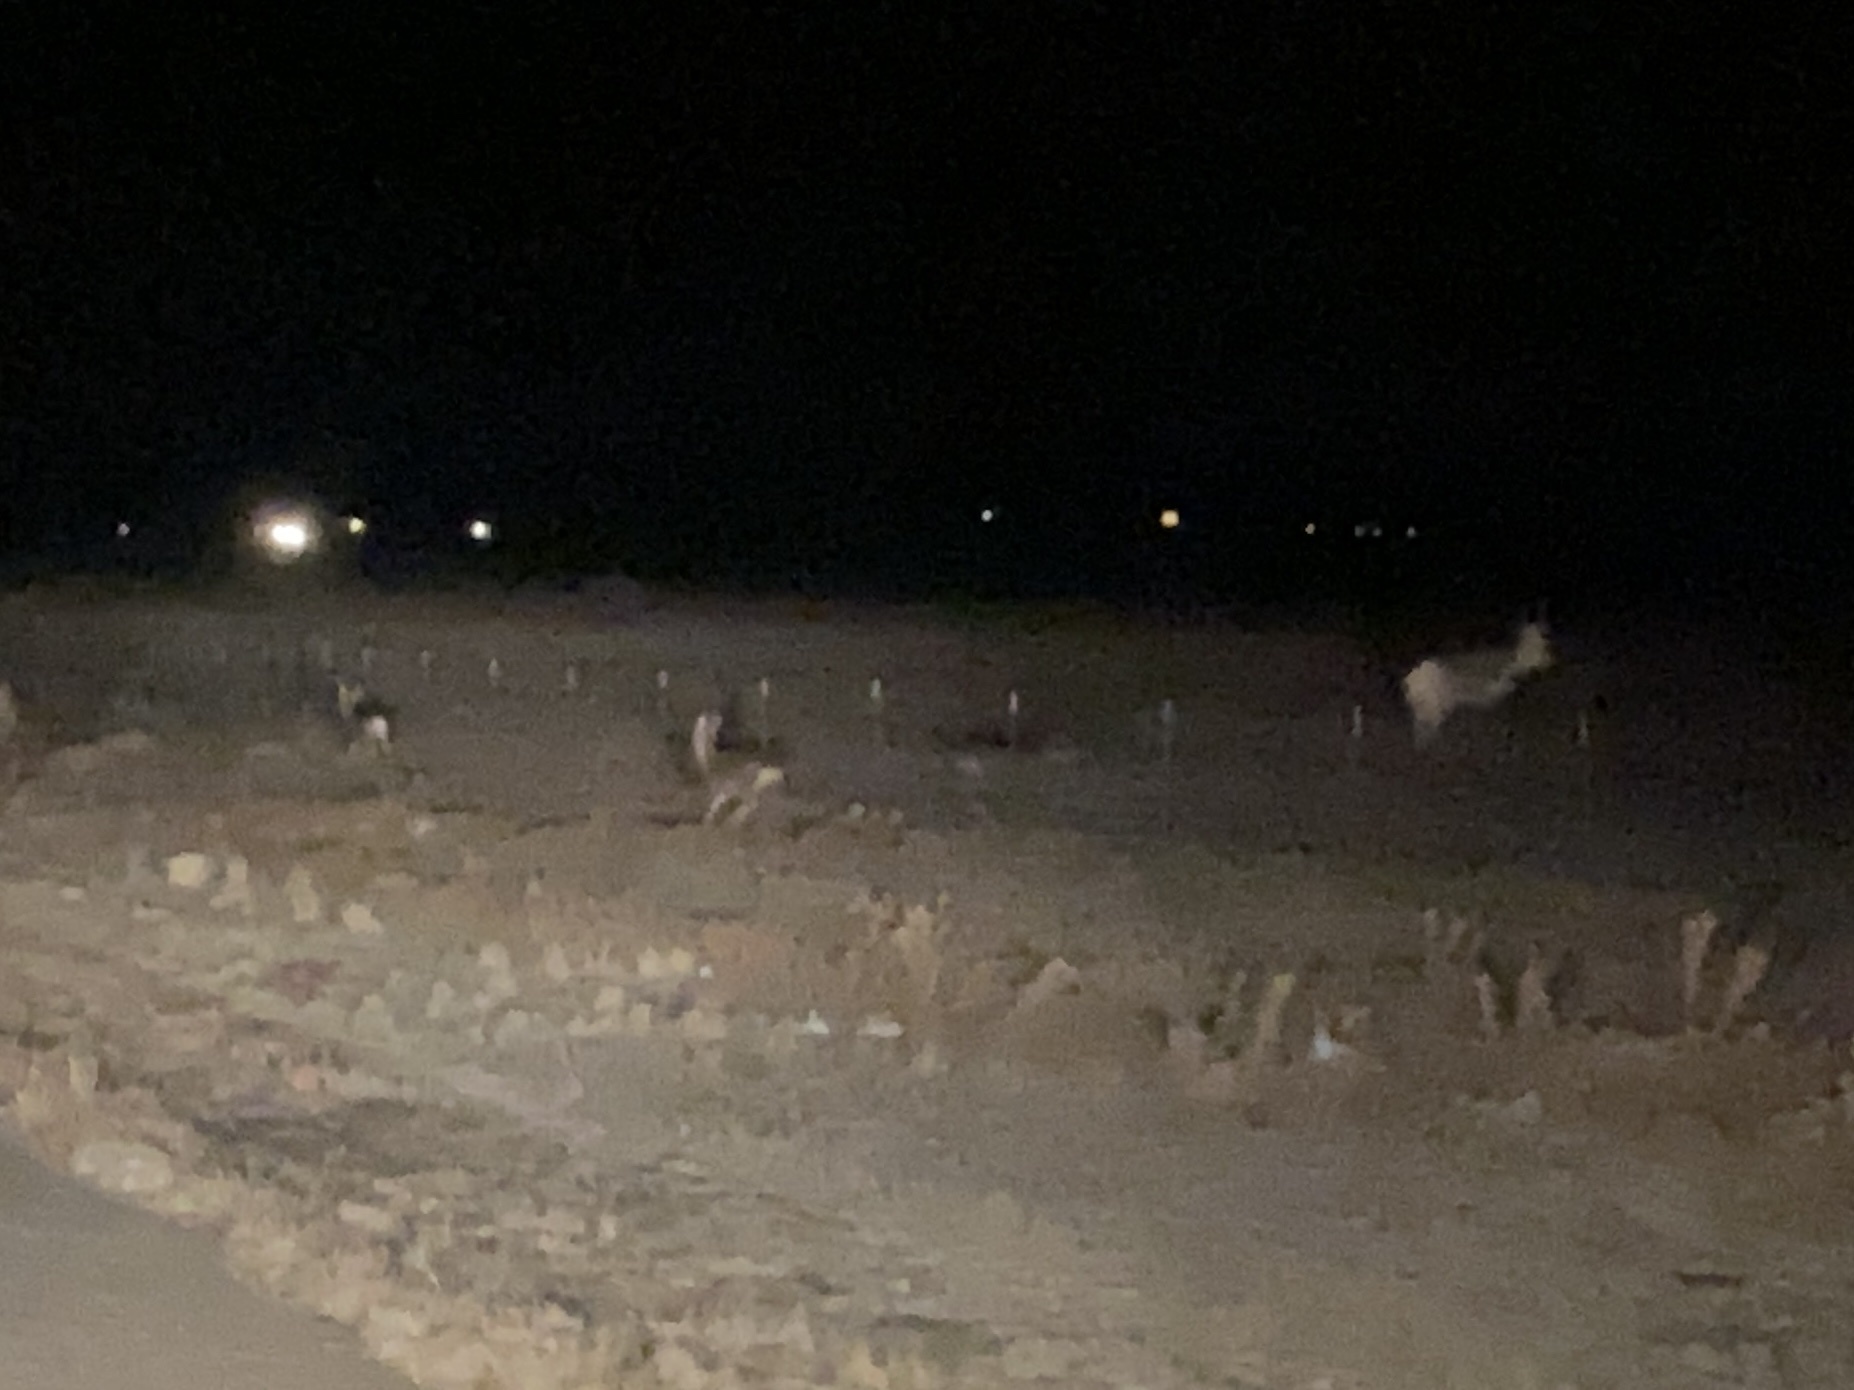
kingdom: Animalia
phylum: Chordata
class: Mammalia
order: Artiodactyla
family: Cervidae
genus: Odocoileus
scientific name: Odocoileus hemionus
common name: Mule deer
